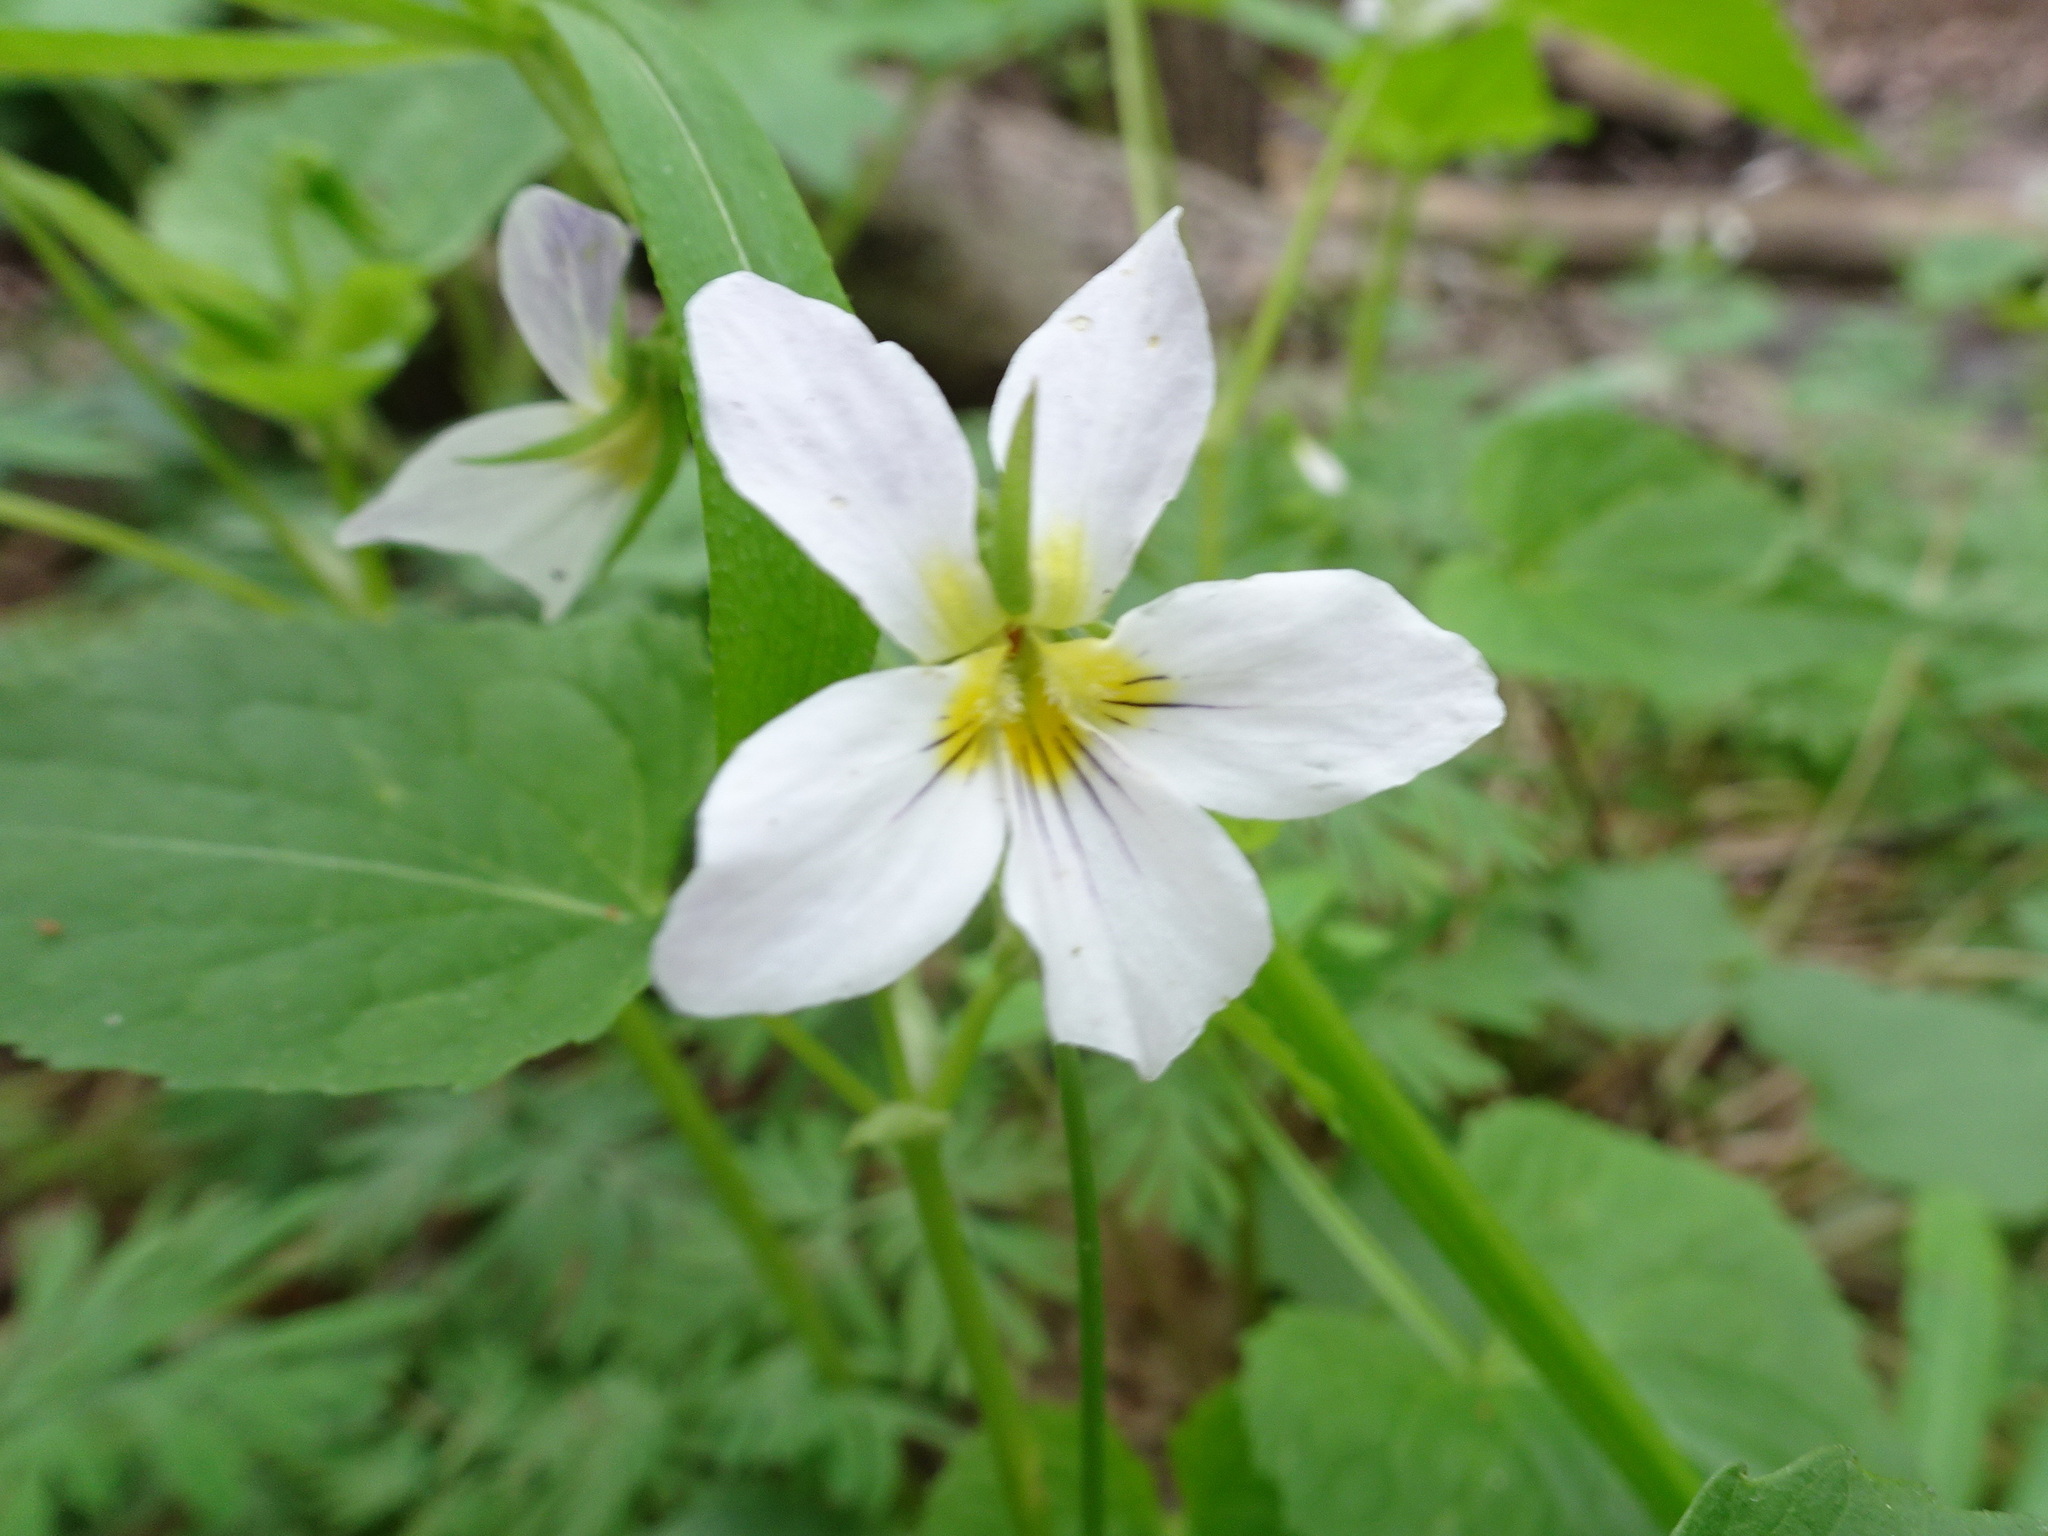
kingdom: Plantae
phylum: Tracheophyta
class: Magnoliopsida
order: Malpighiales
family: Violaceae
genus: Viola
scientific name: Viola canadensis
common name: Canada violet
